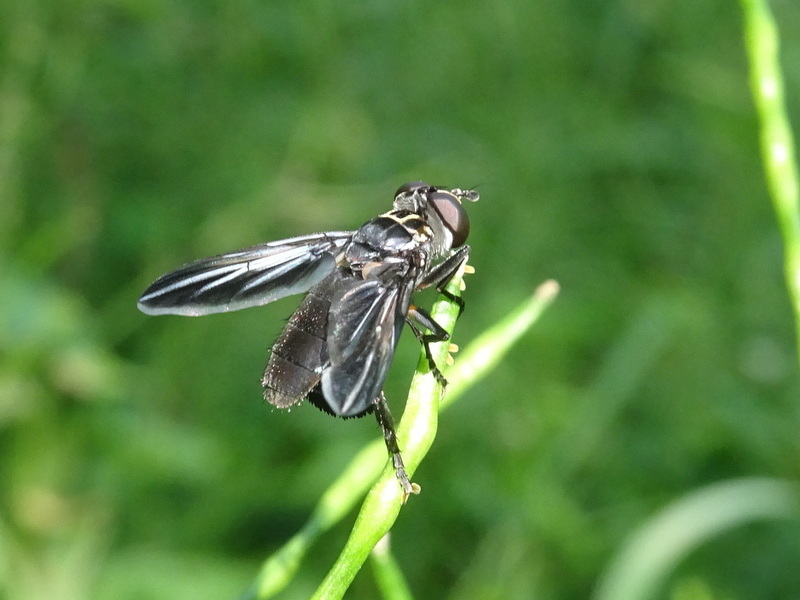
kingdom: Animalia
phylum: Arthropoda
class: Insecta
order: Diptera
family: Tachinidae
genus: Trichopoda
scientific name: Trichopoda lanipes
